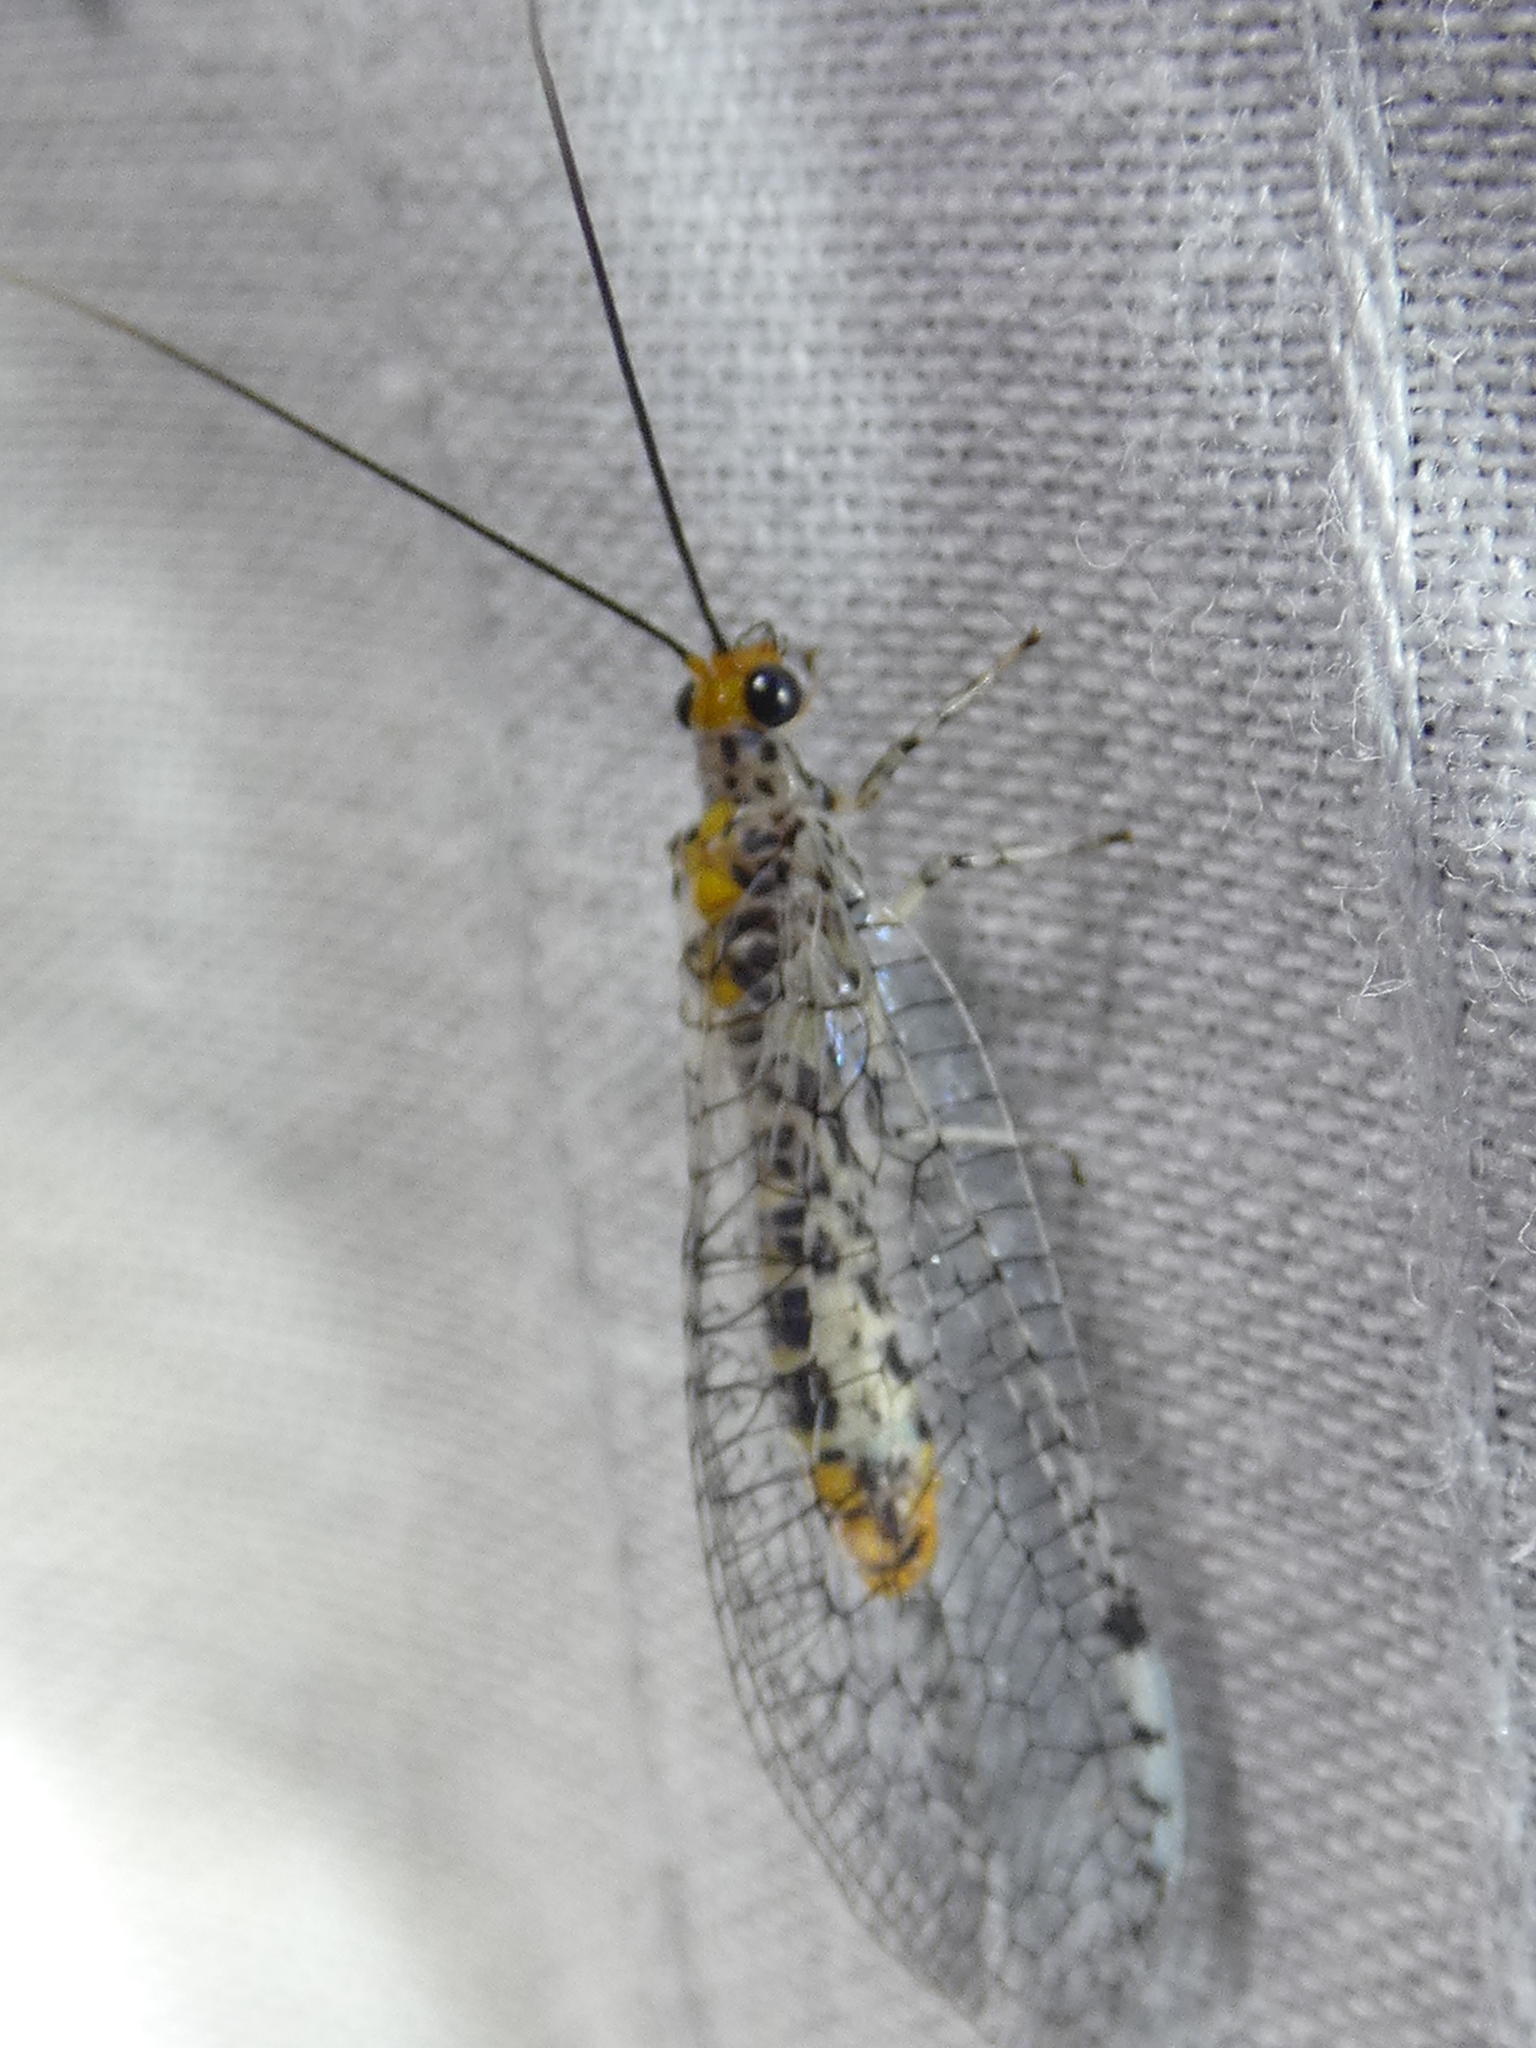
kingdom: Animalia
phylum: Arthropoda
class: Insecta
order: Neuroptera
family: Chrysopidae
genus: Abachrysa
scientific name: Abachrysa eureka
